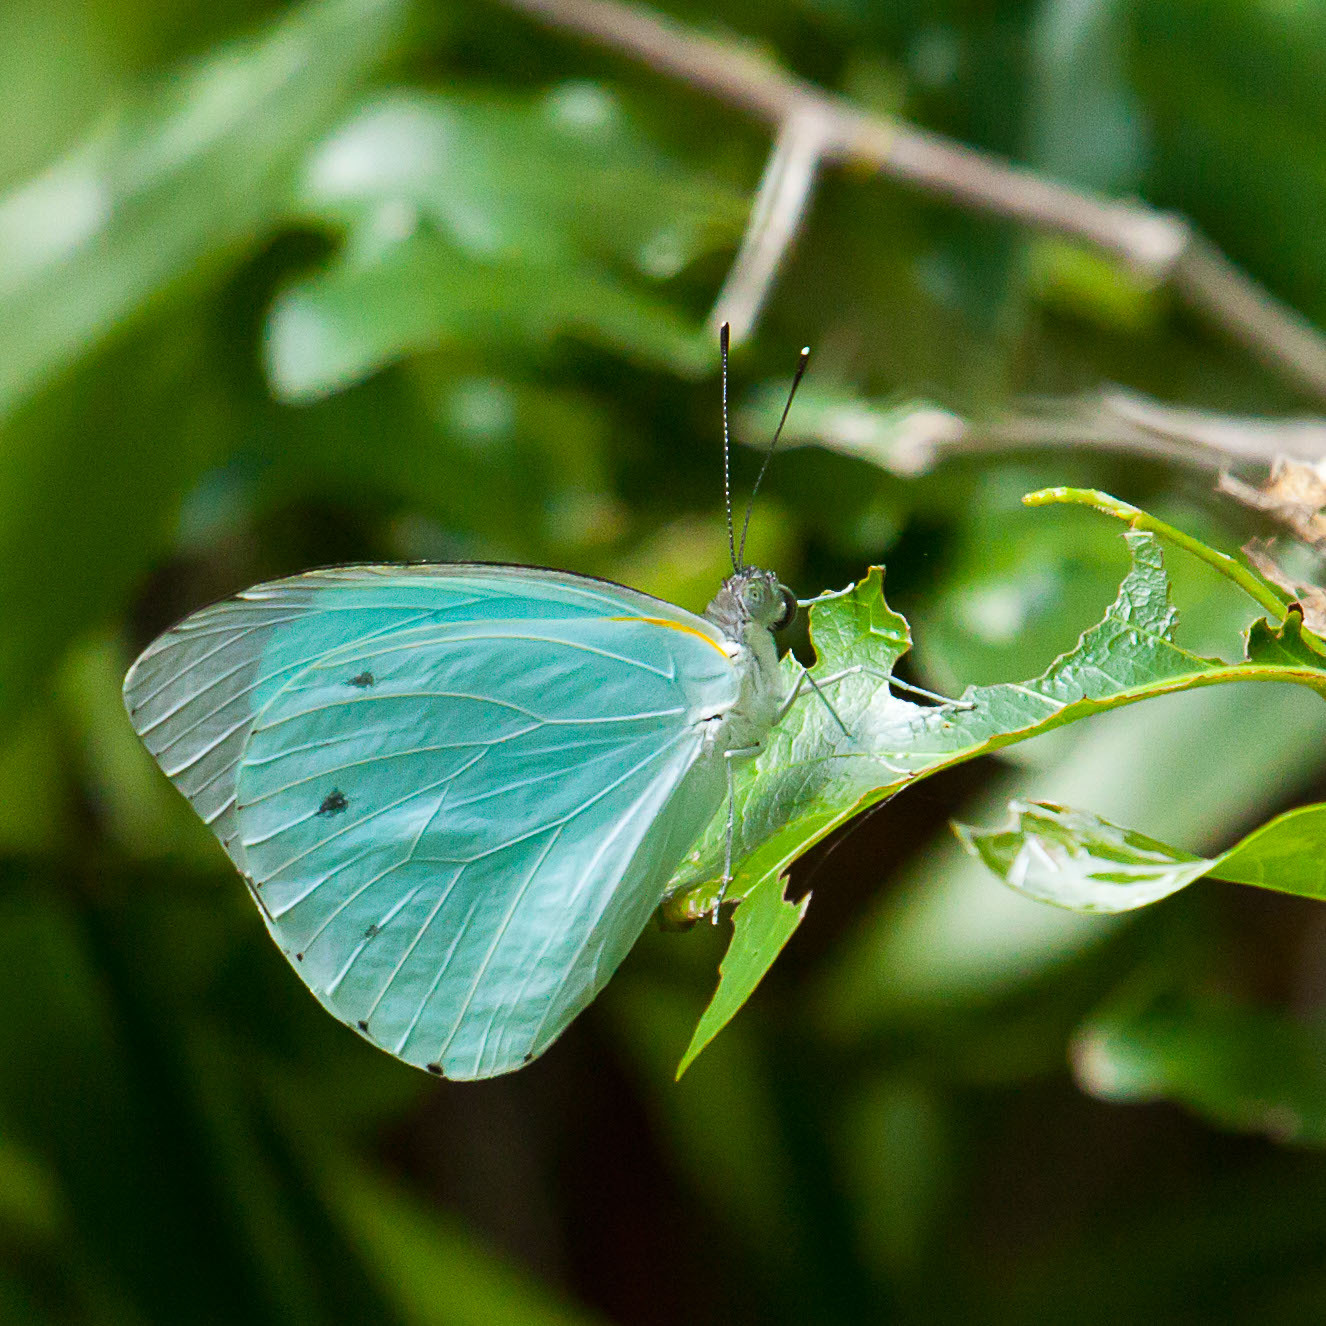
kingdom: Animalia
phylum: Arthropoda
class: Insecta
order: Lepidoptera
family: Pieridae
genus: Nepheronia
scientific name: Nepheronia thalassina
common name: Cambridge vagrant
